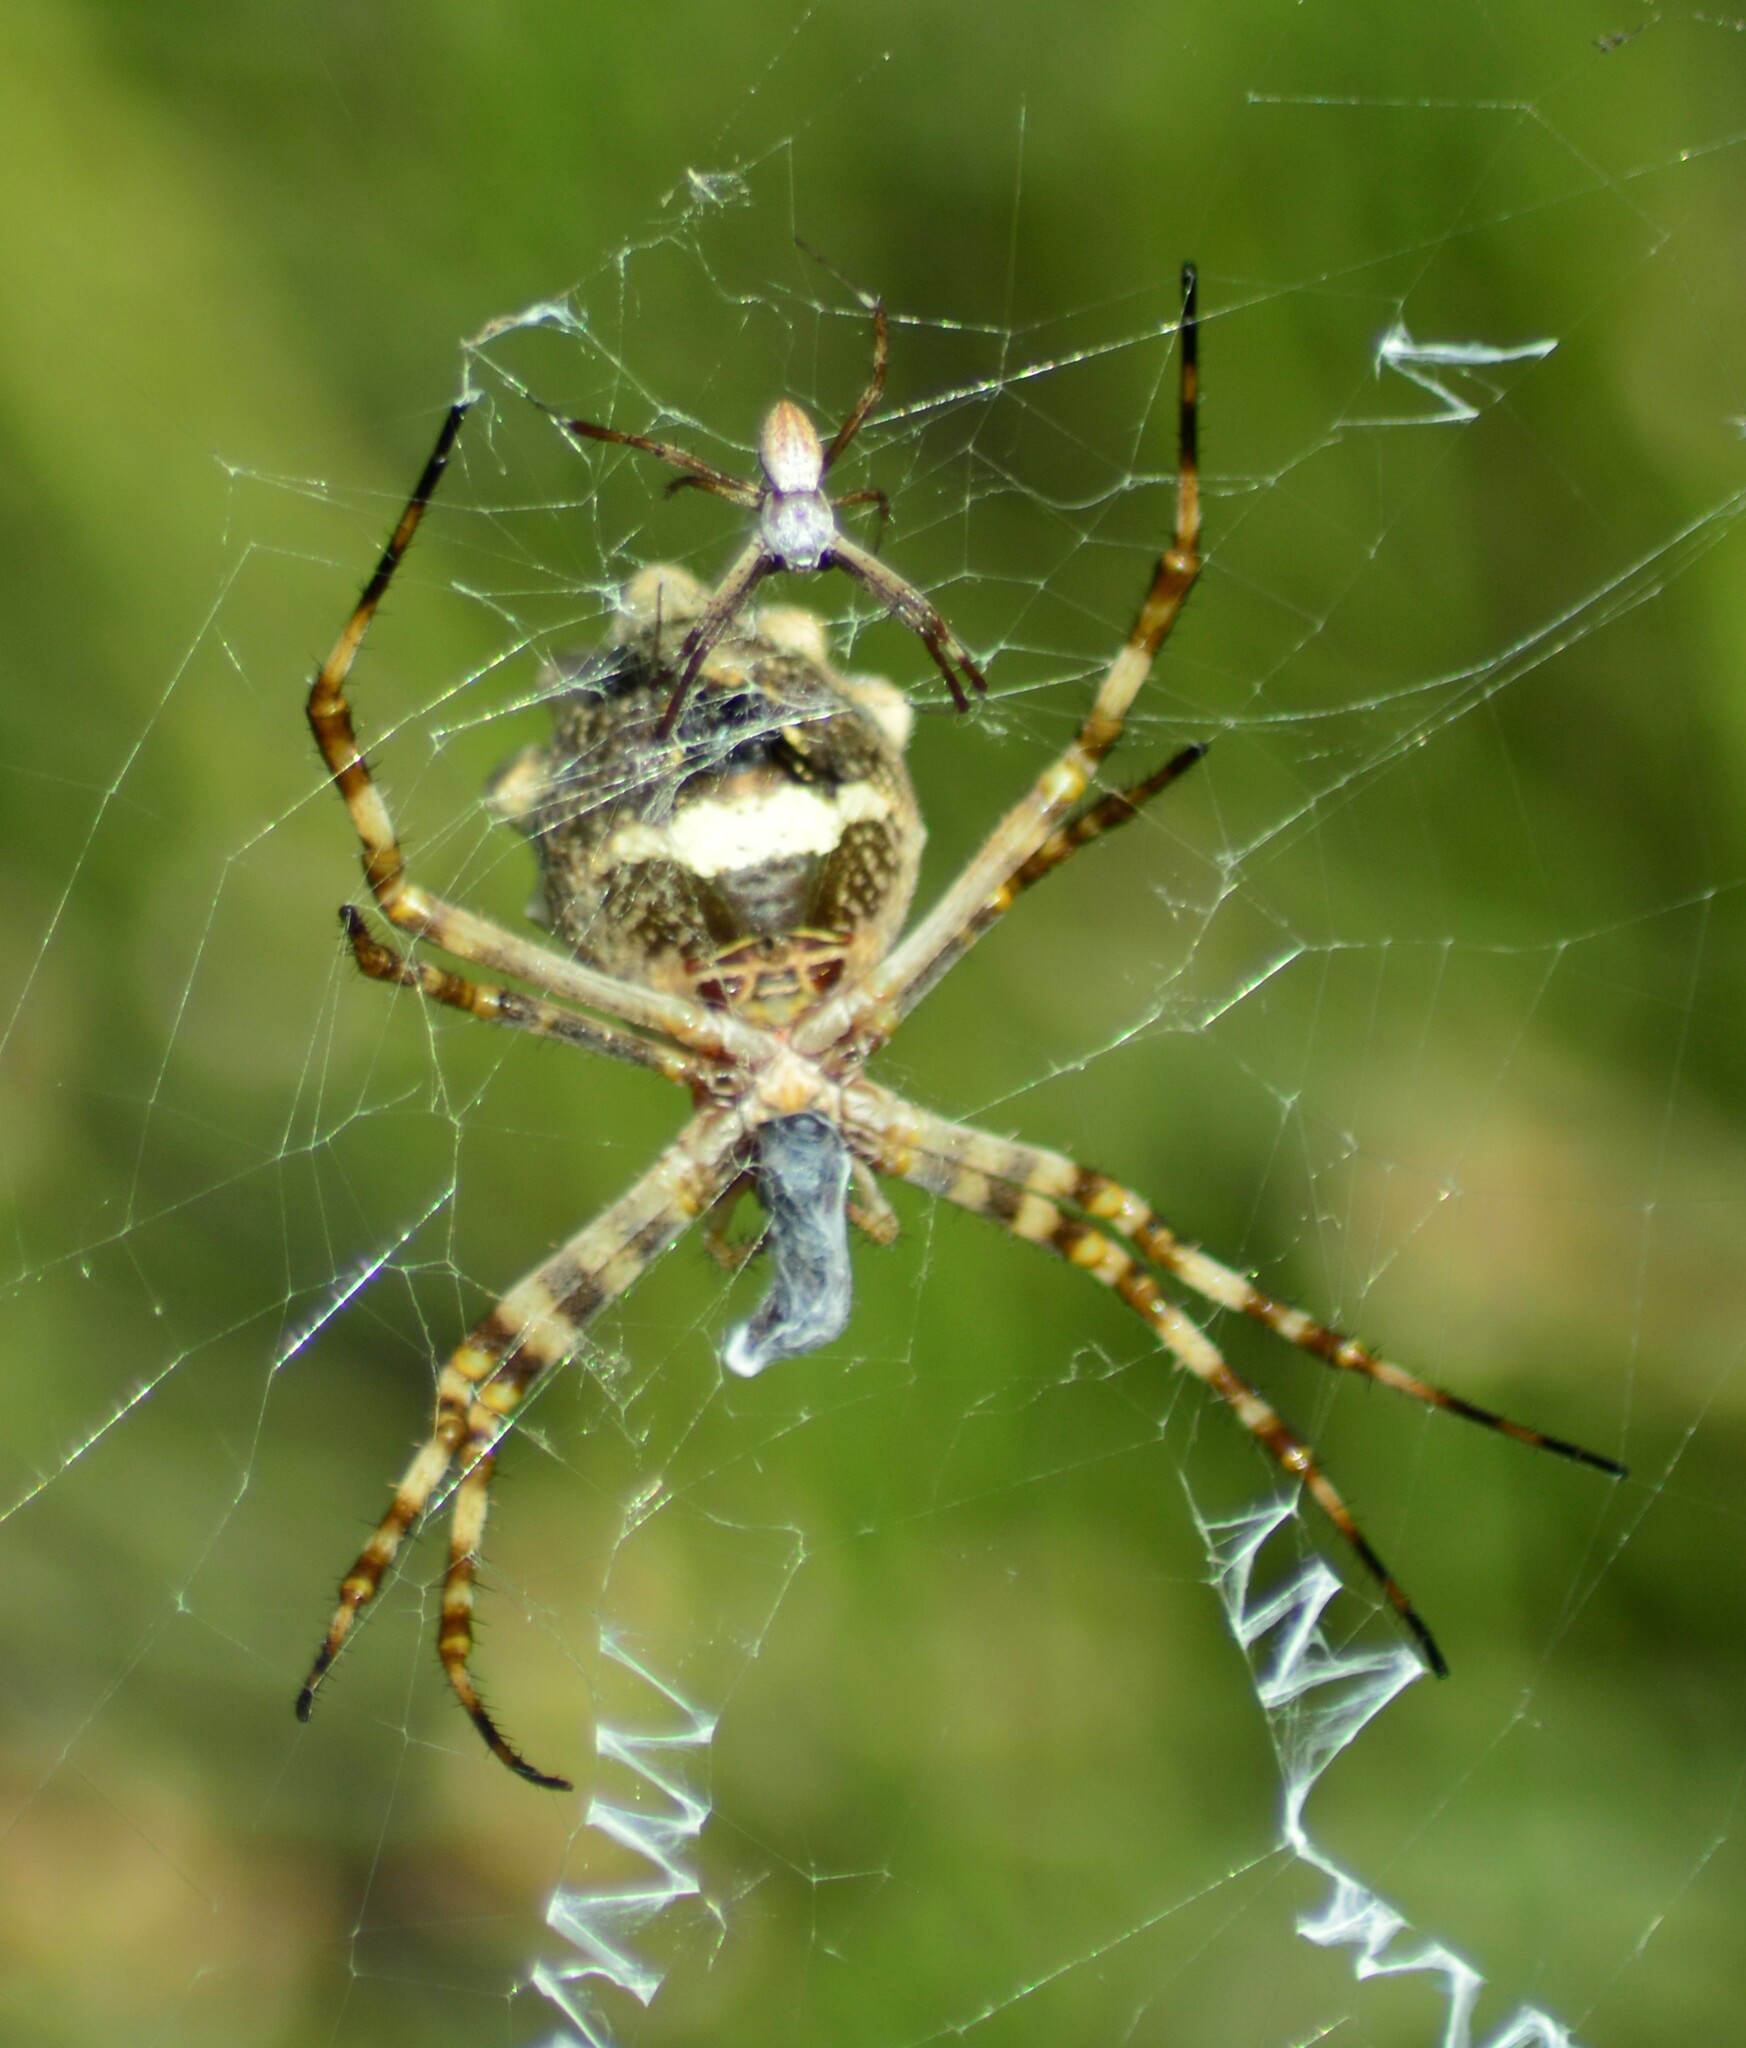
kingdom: Animalia
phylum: Arthropoda
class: Arachnida
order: Araneae
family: Araneidae
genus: Argiope
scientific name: Argiope argentata
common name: Orb weavers
